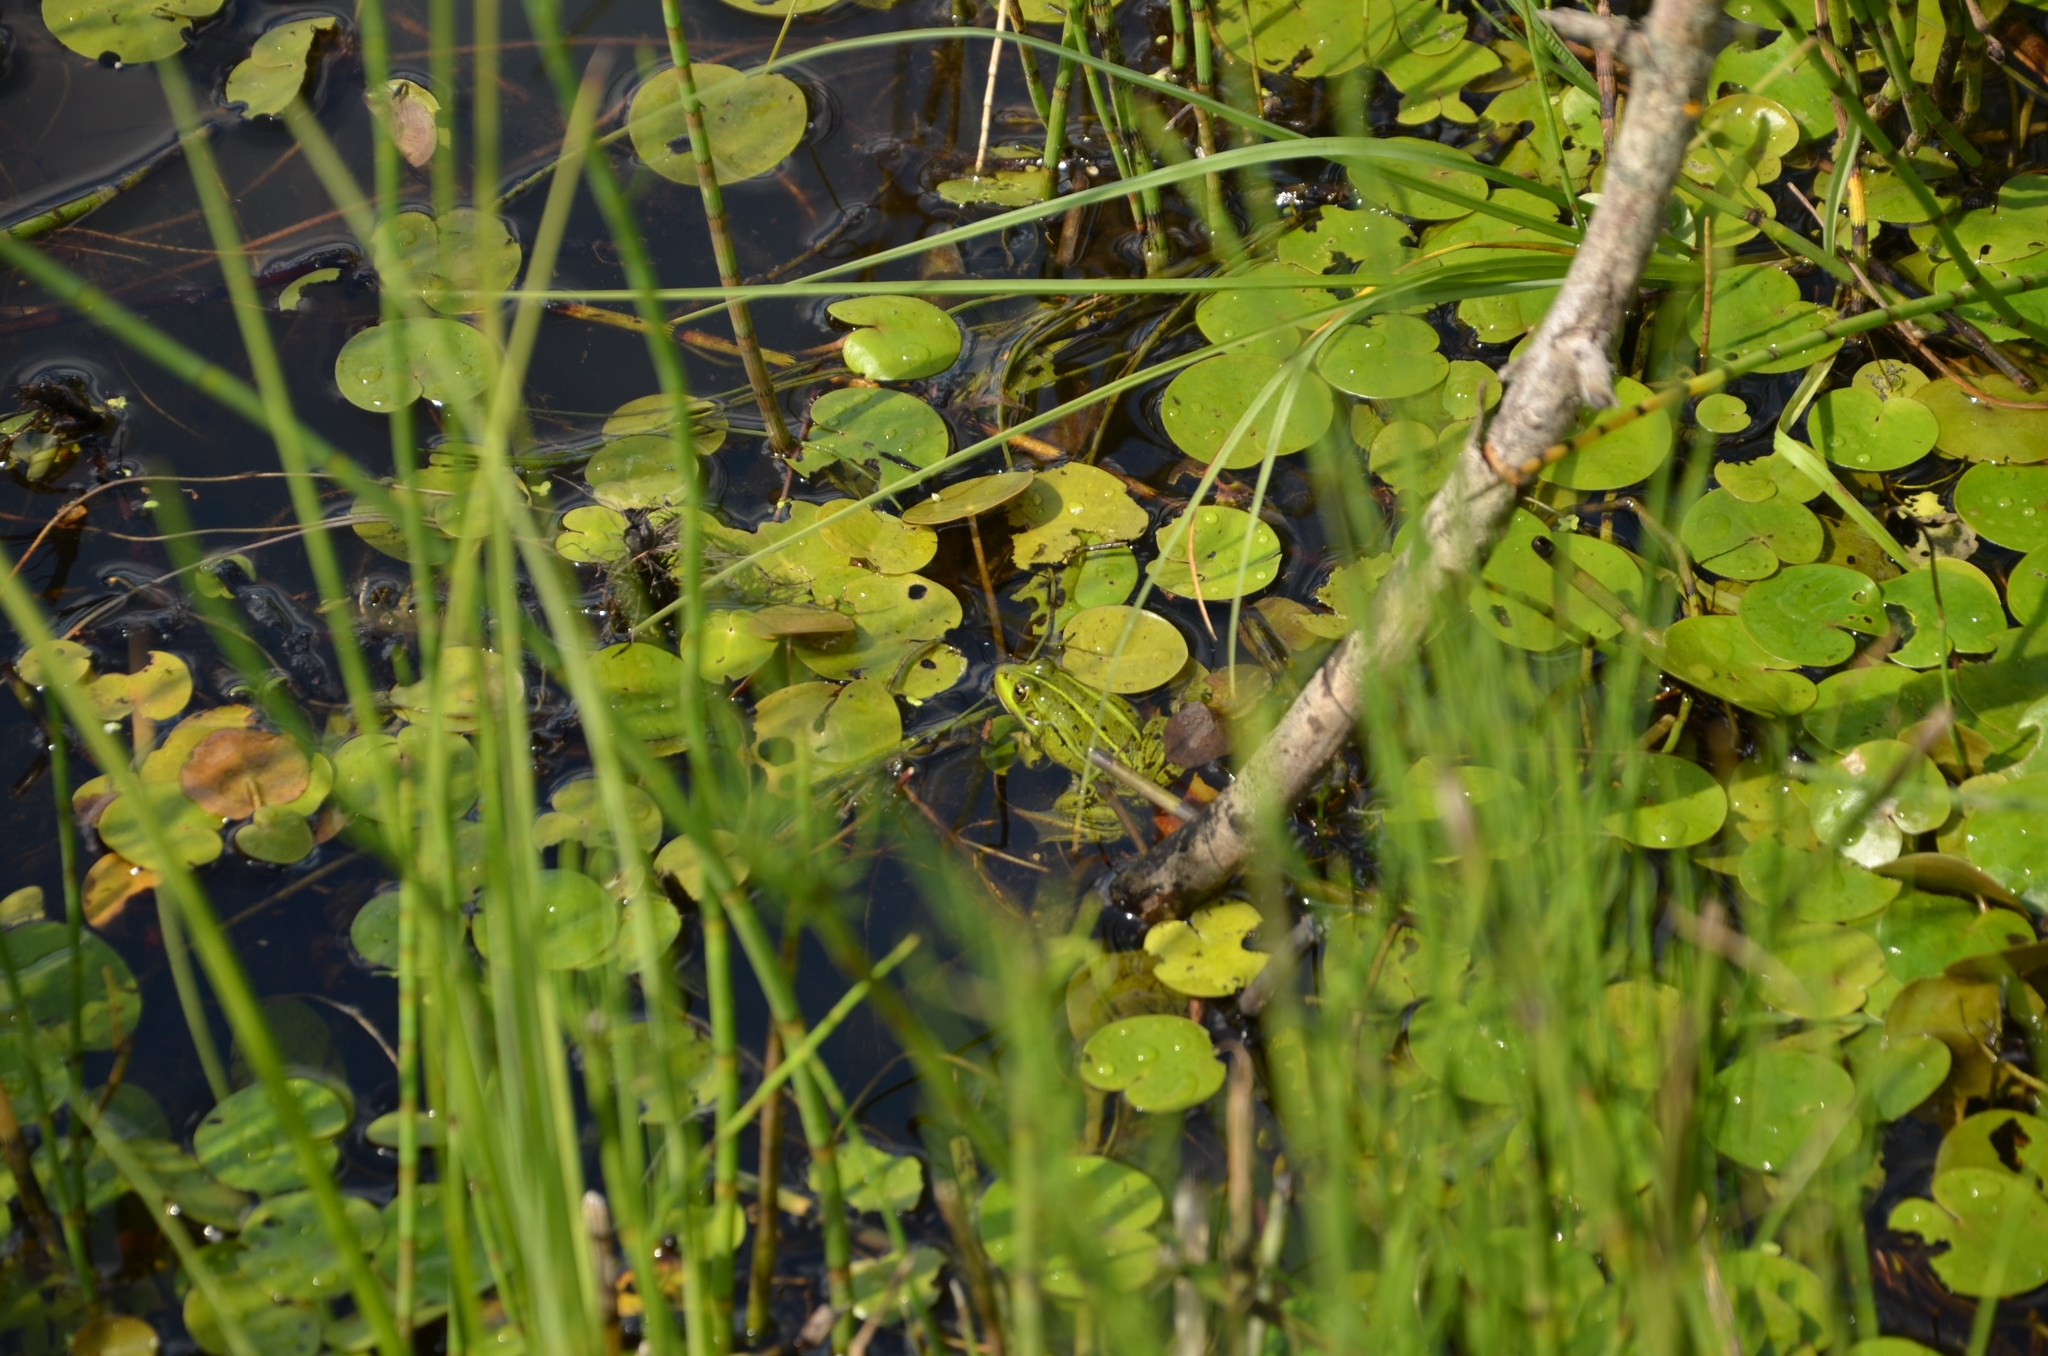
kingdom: Animalia
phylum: Chordata
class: Amphibia
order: Anura
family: Ranidae
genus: Pelophylax
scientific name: Pelophylax lessonae
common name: Pool frog
